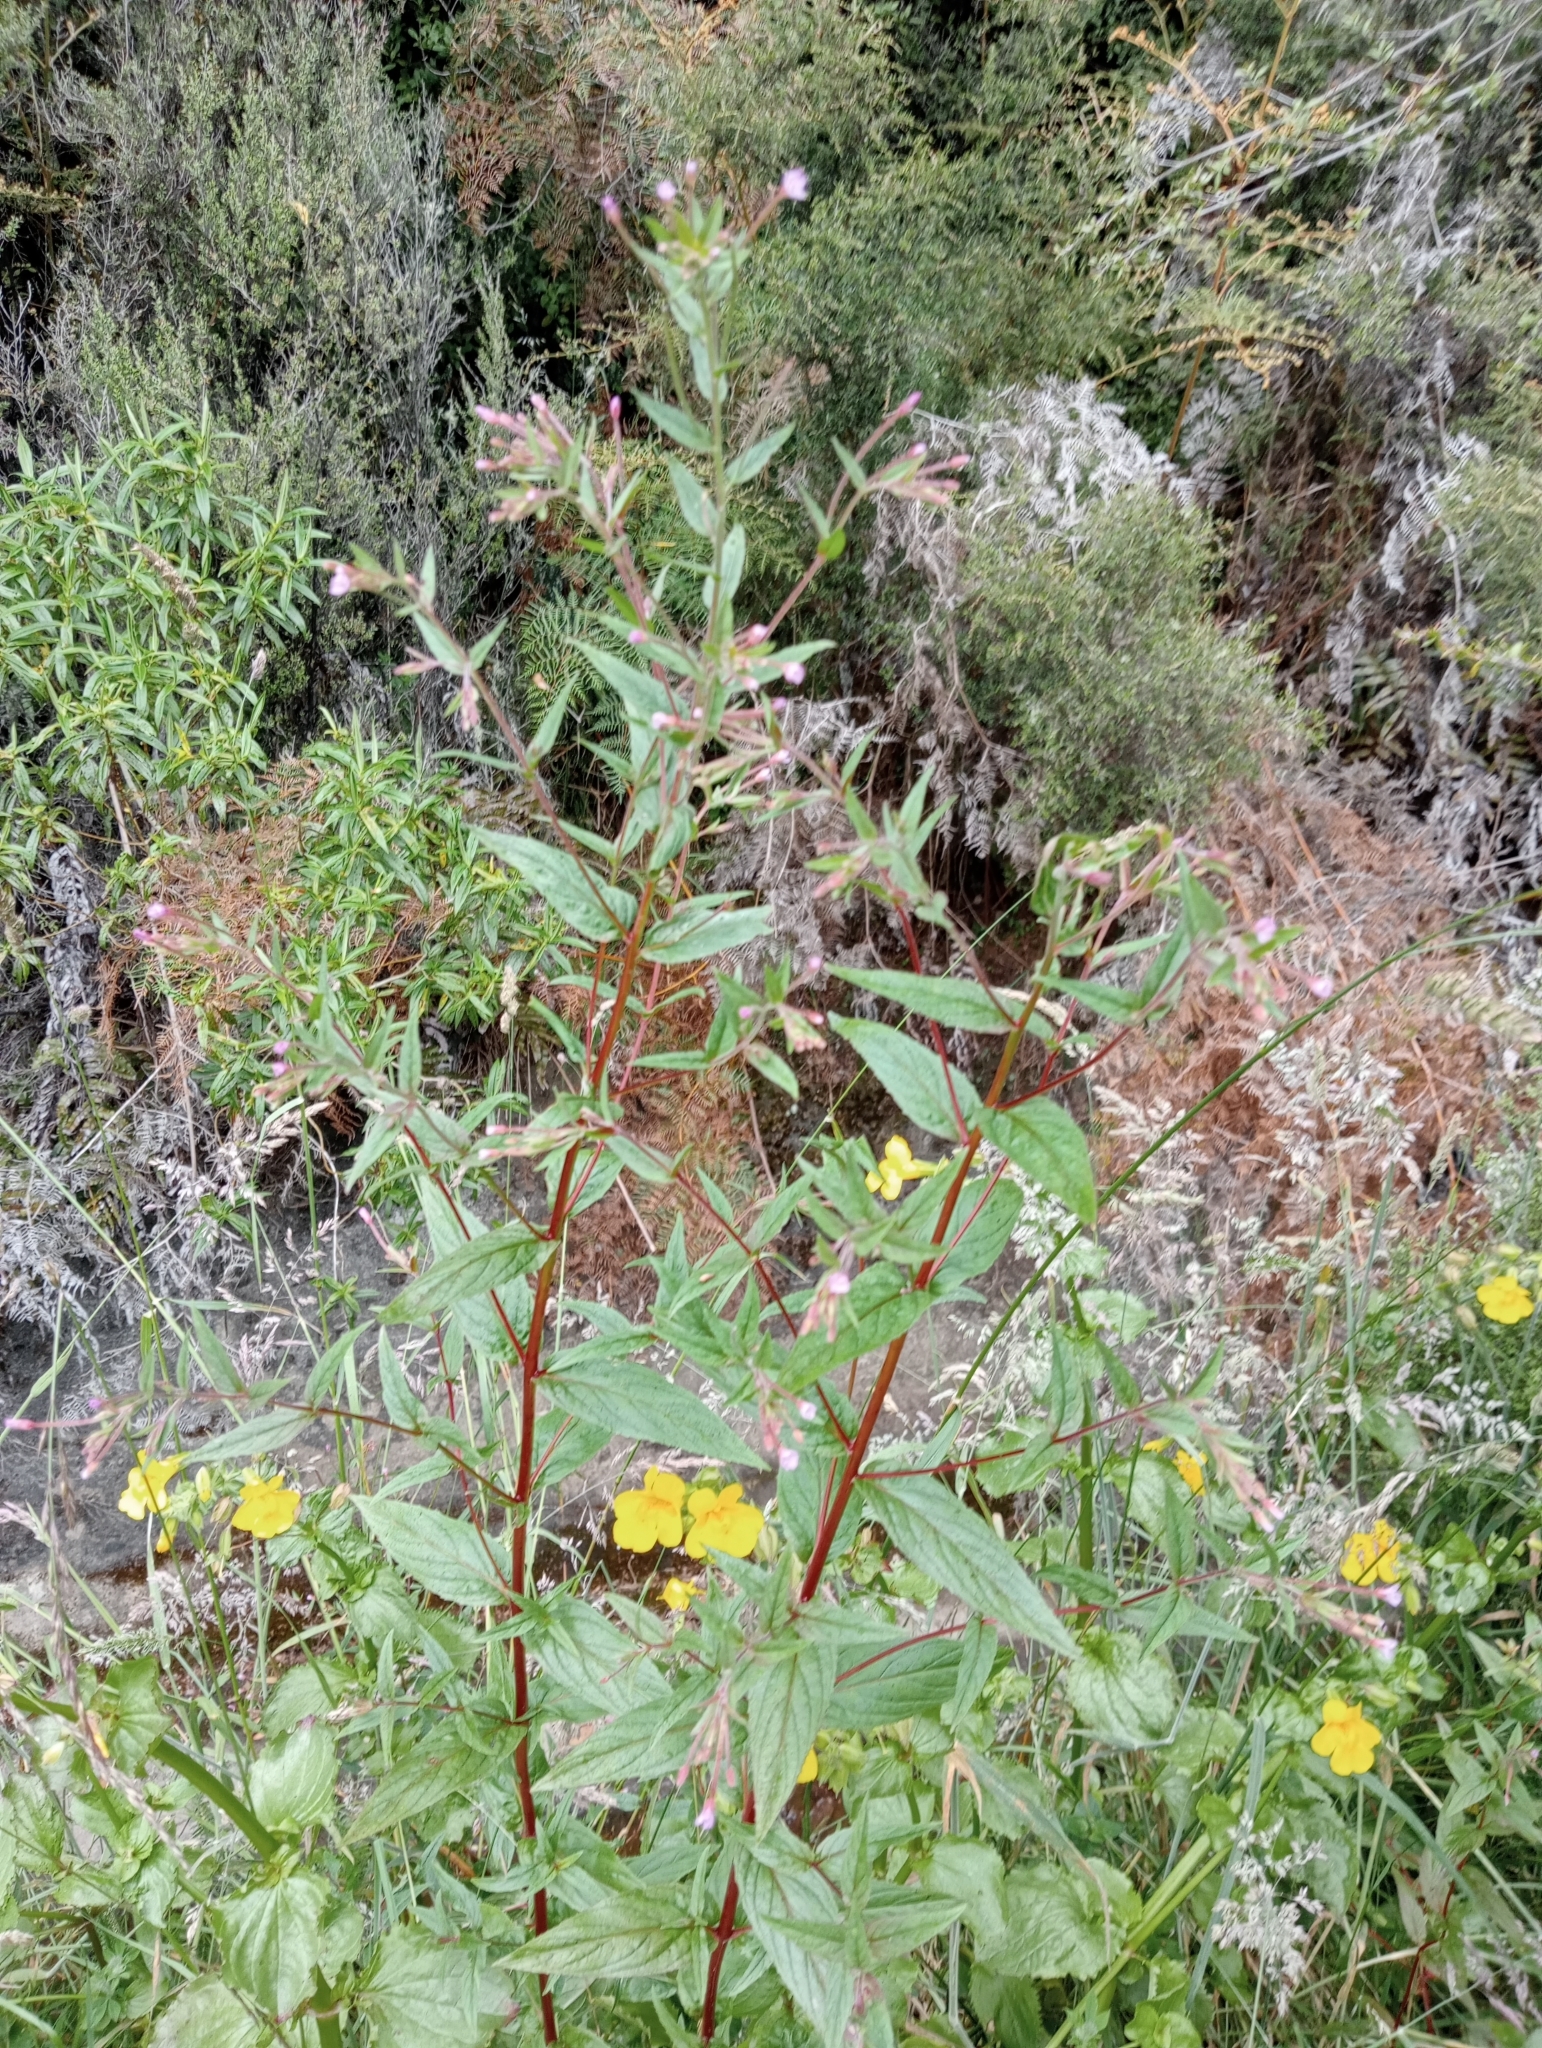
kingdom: Plantae
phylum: Tracheophyta
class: Magnoliopsida
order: Myrtales
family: Onagraceae
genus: Epilobium
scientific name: Epilobium ciliatum
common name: American willowherb
